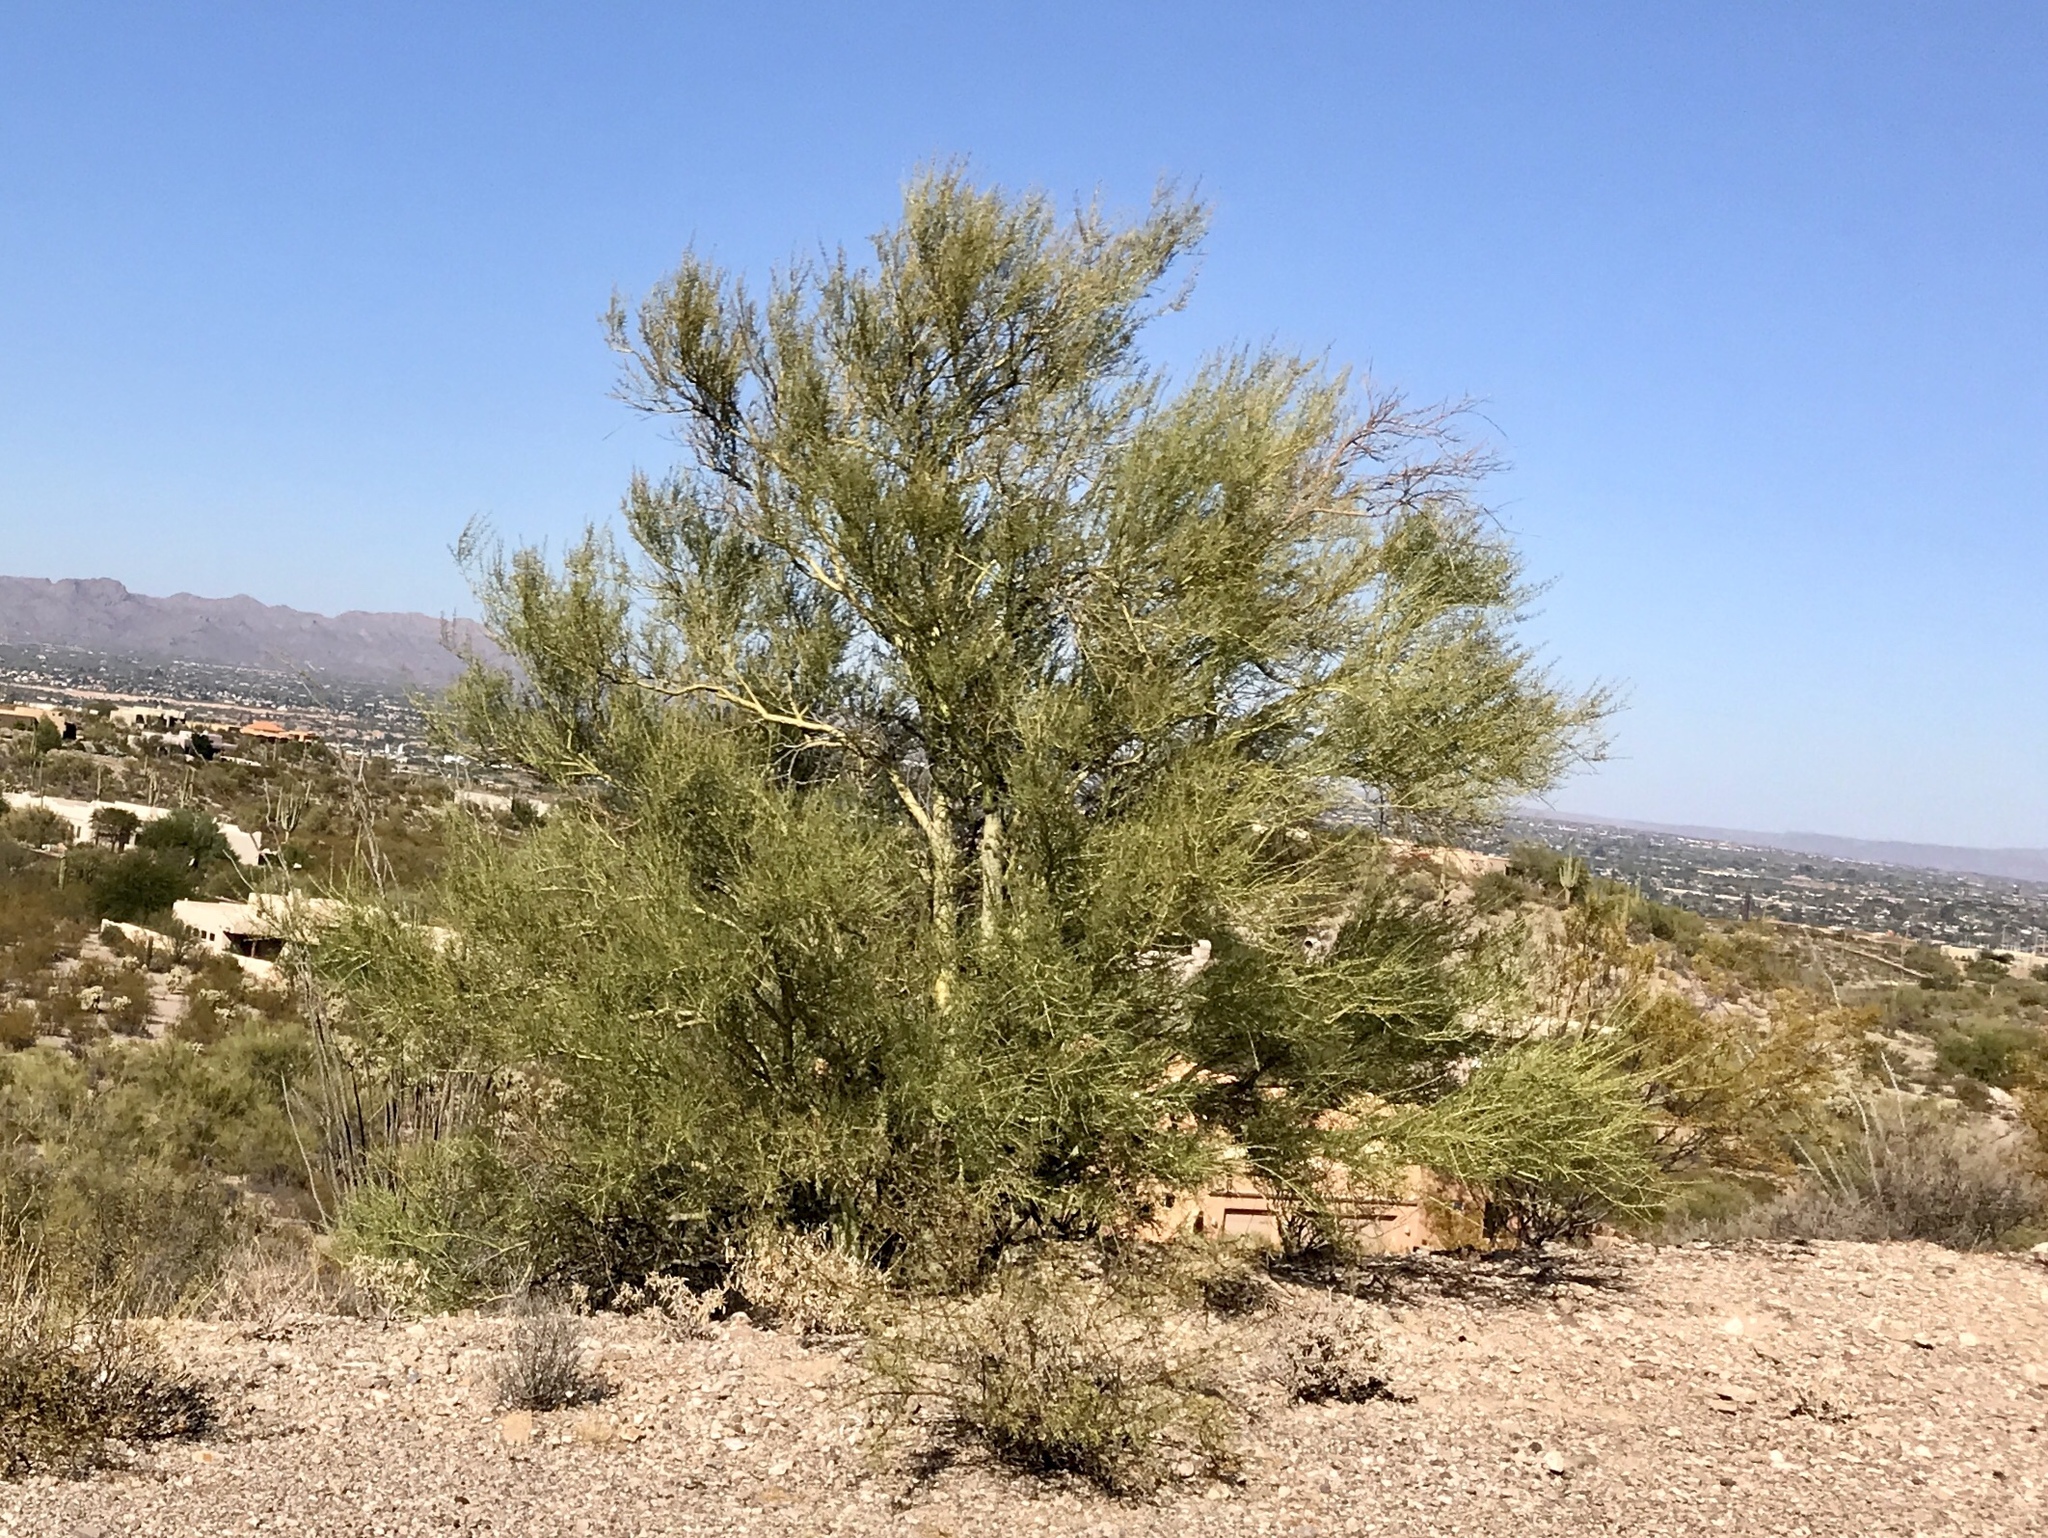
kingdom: Plantae
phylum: Tracheophyta
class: Magnoliopsida
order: Fabales
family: Fabaceae
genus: Parkinsonia
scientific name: Parkinsonia microphylla
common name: Yellow paloverde
